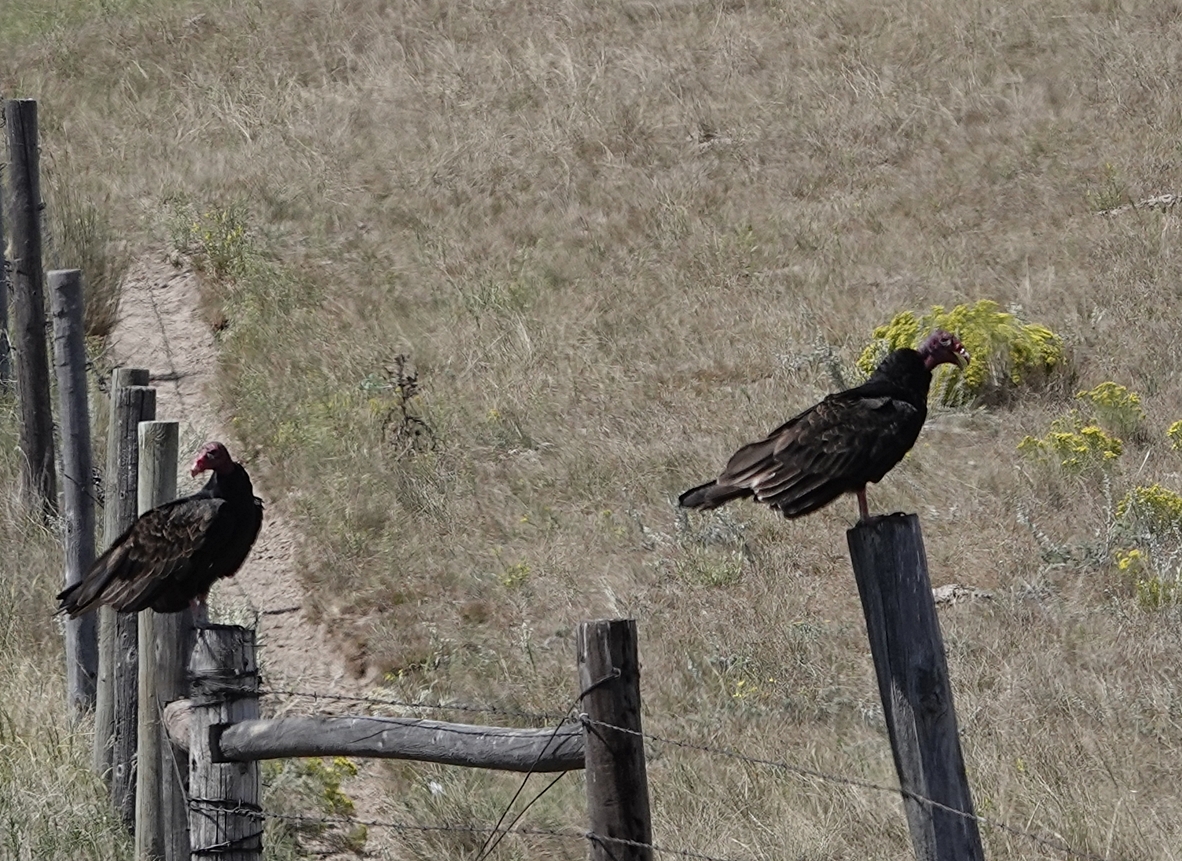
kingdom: Animalia
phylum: Chordata
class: Aves
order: Accipitriformes
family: Cathartidae
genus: Cathartes
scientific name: Cathartes aura
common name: Turkey vulture
